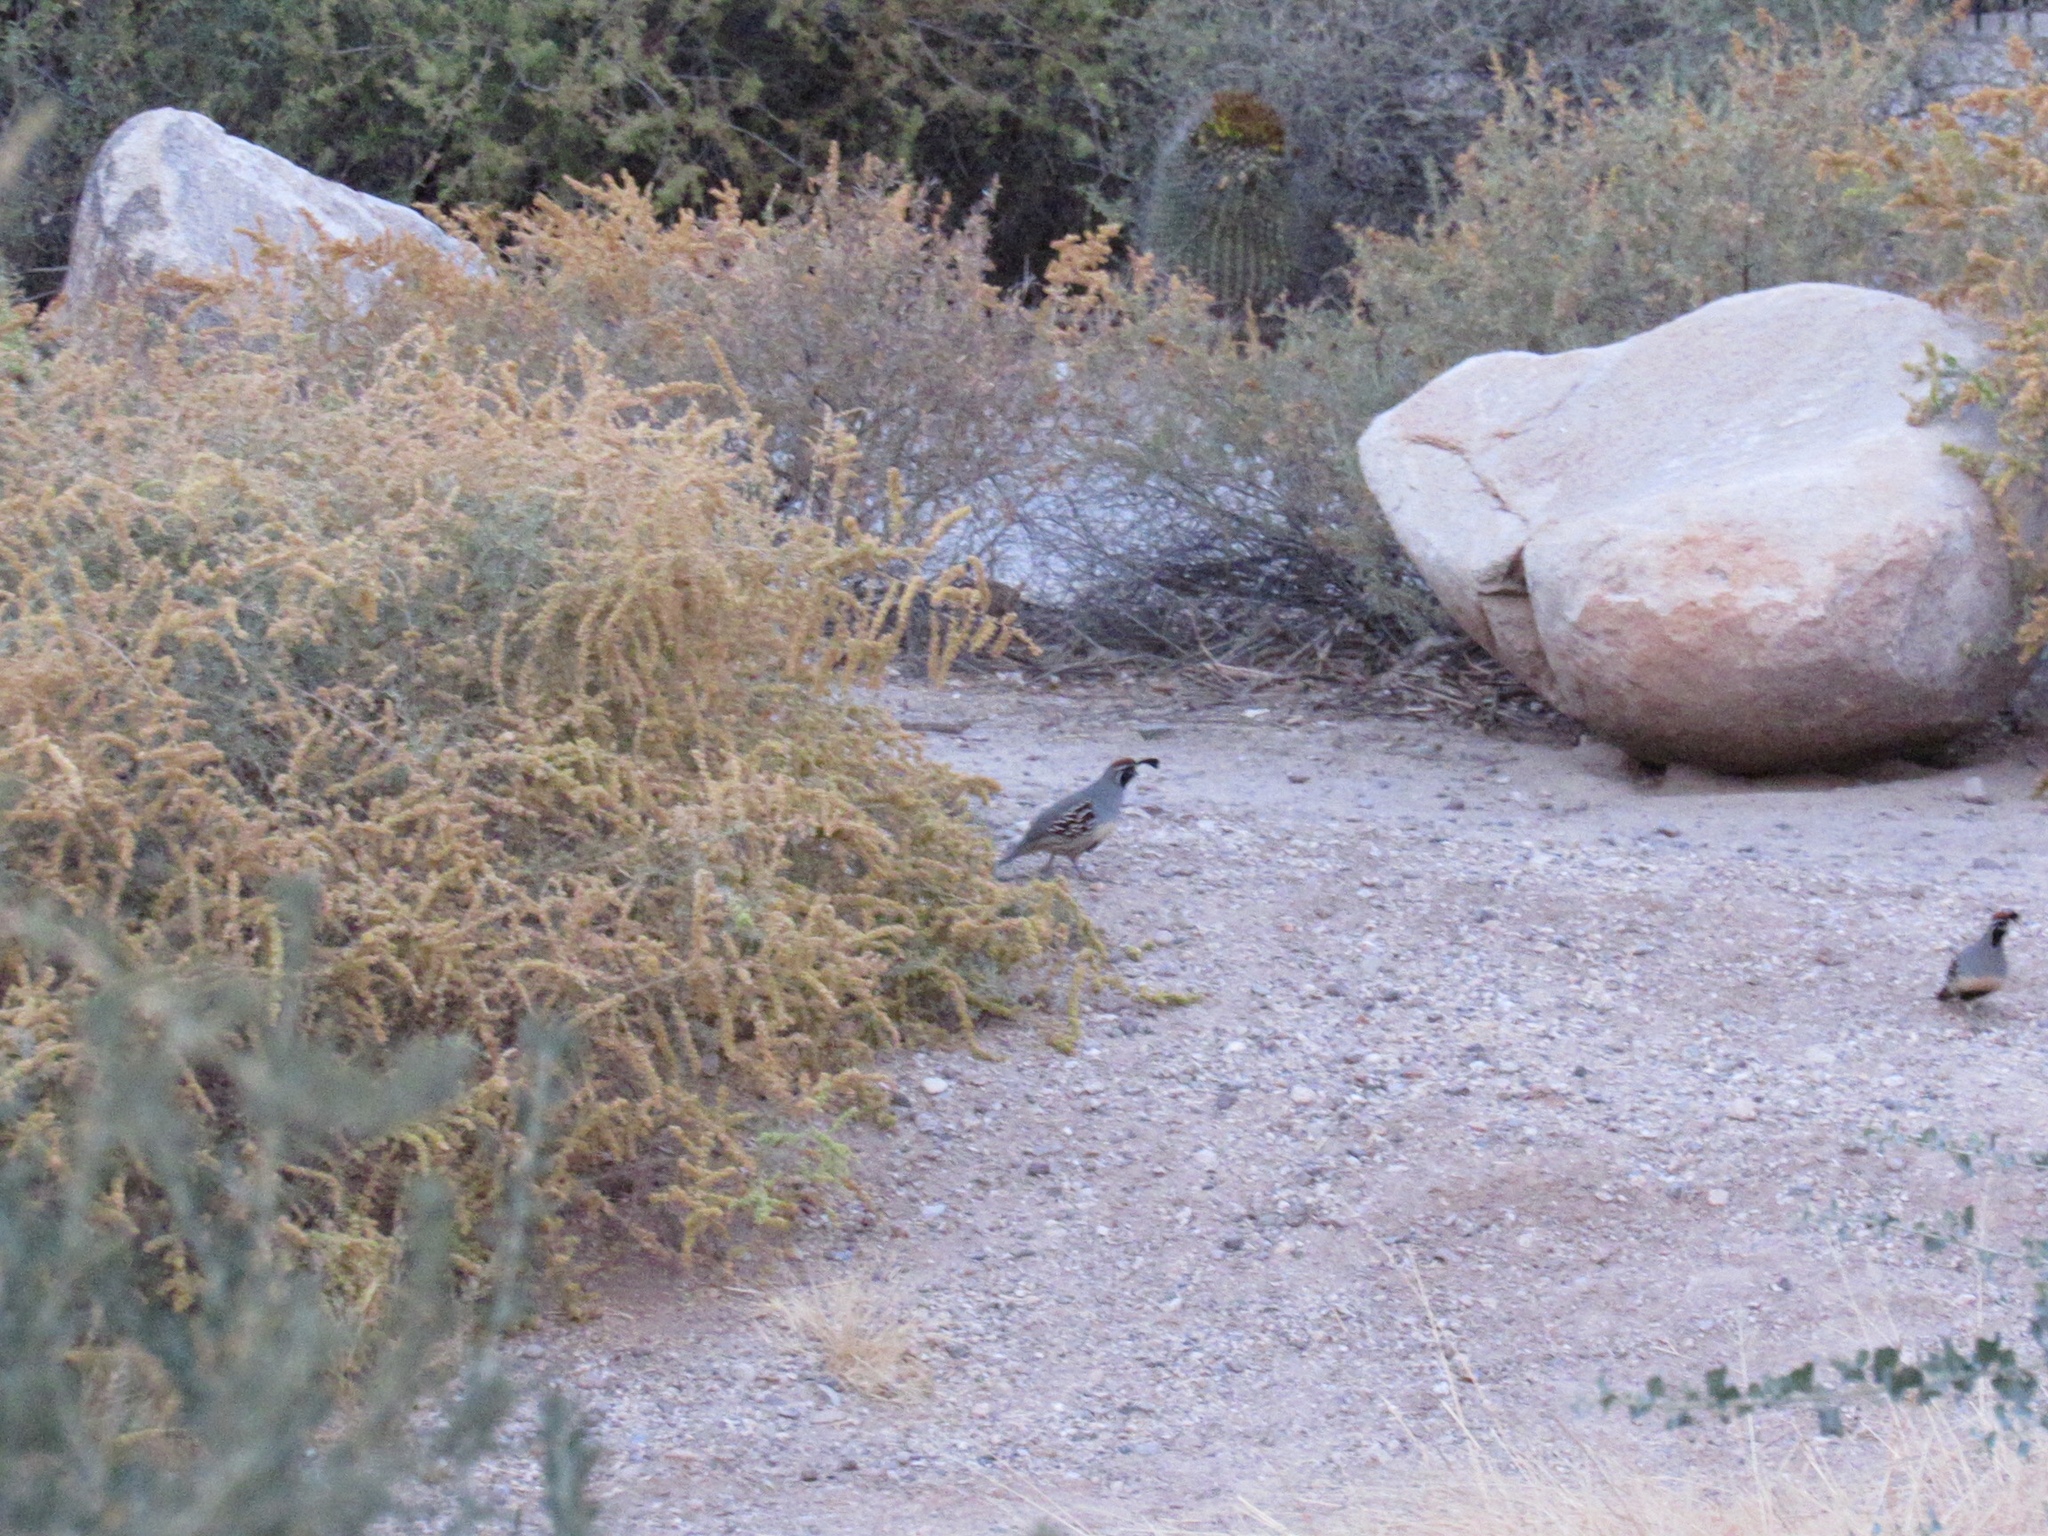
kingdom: Animalia
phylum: Chordata
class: Aves
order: Galliformes
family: Odontophoridae
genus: Callipepla
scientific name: Callipepla gambelii
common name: Gambel's quail
